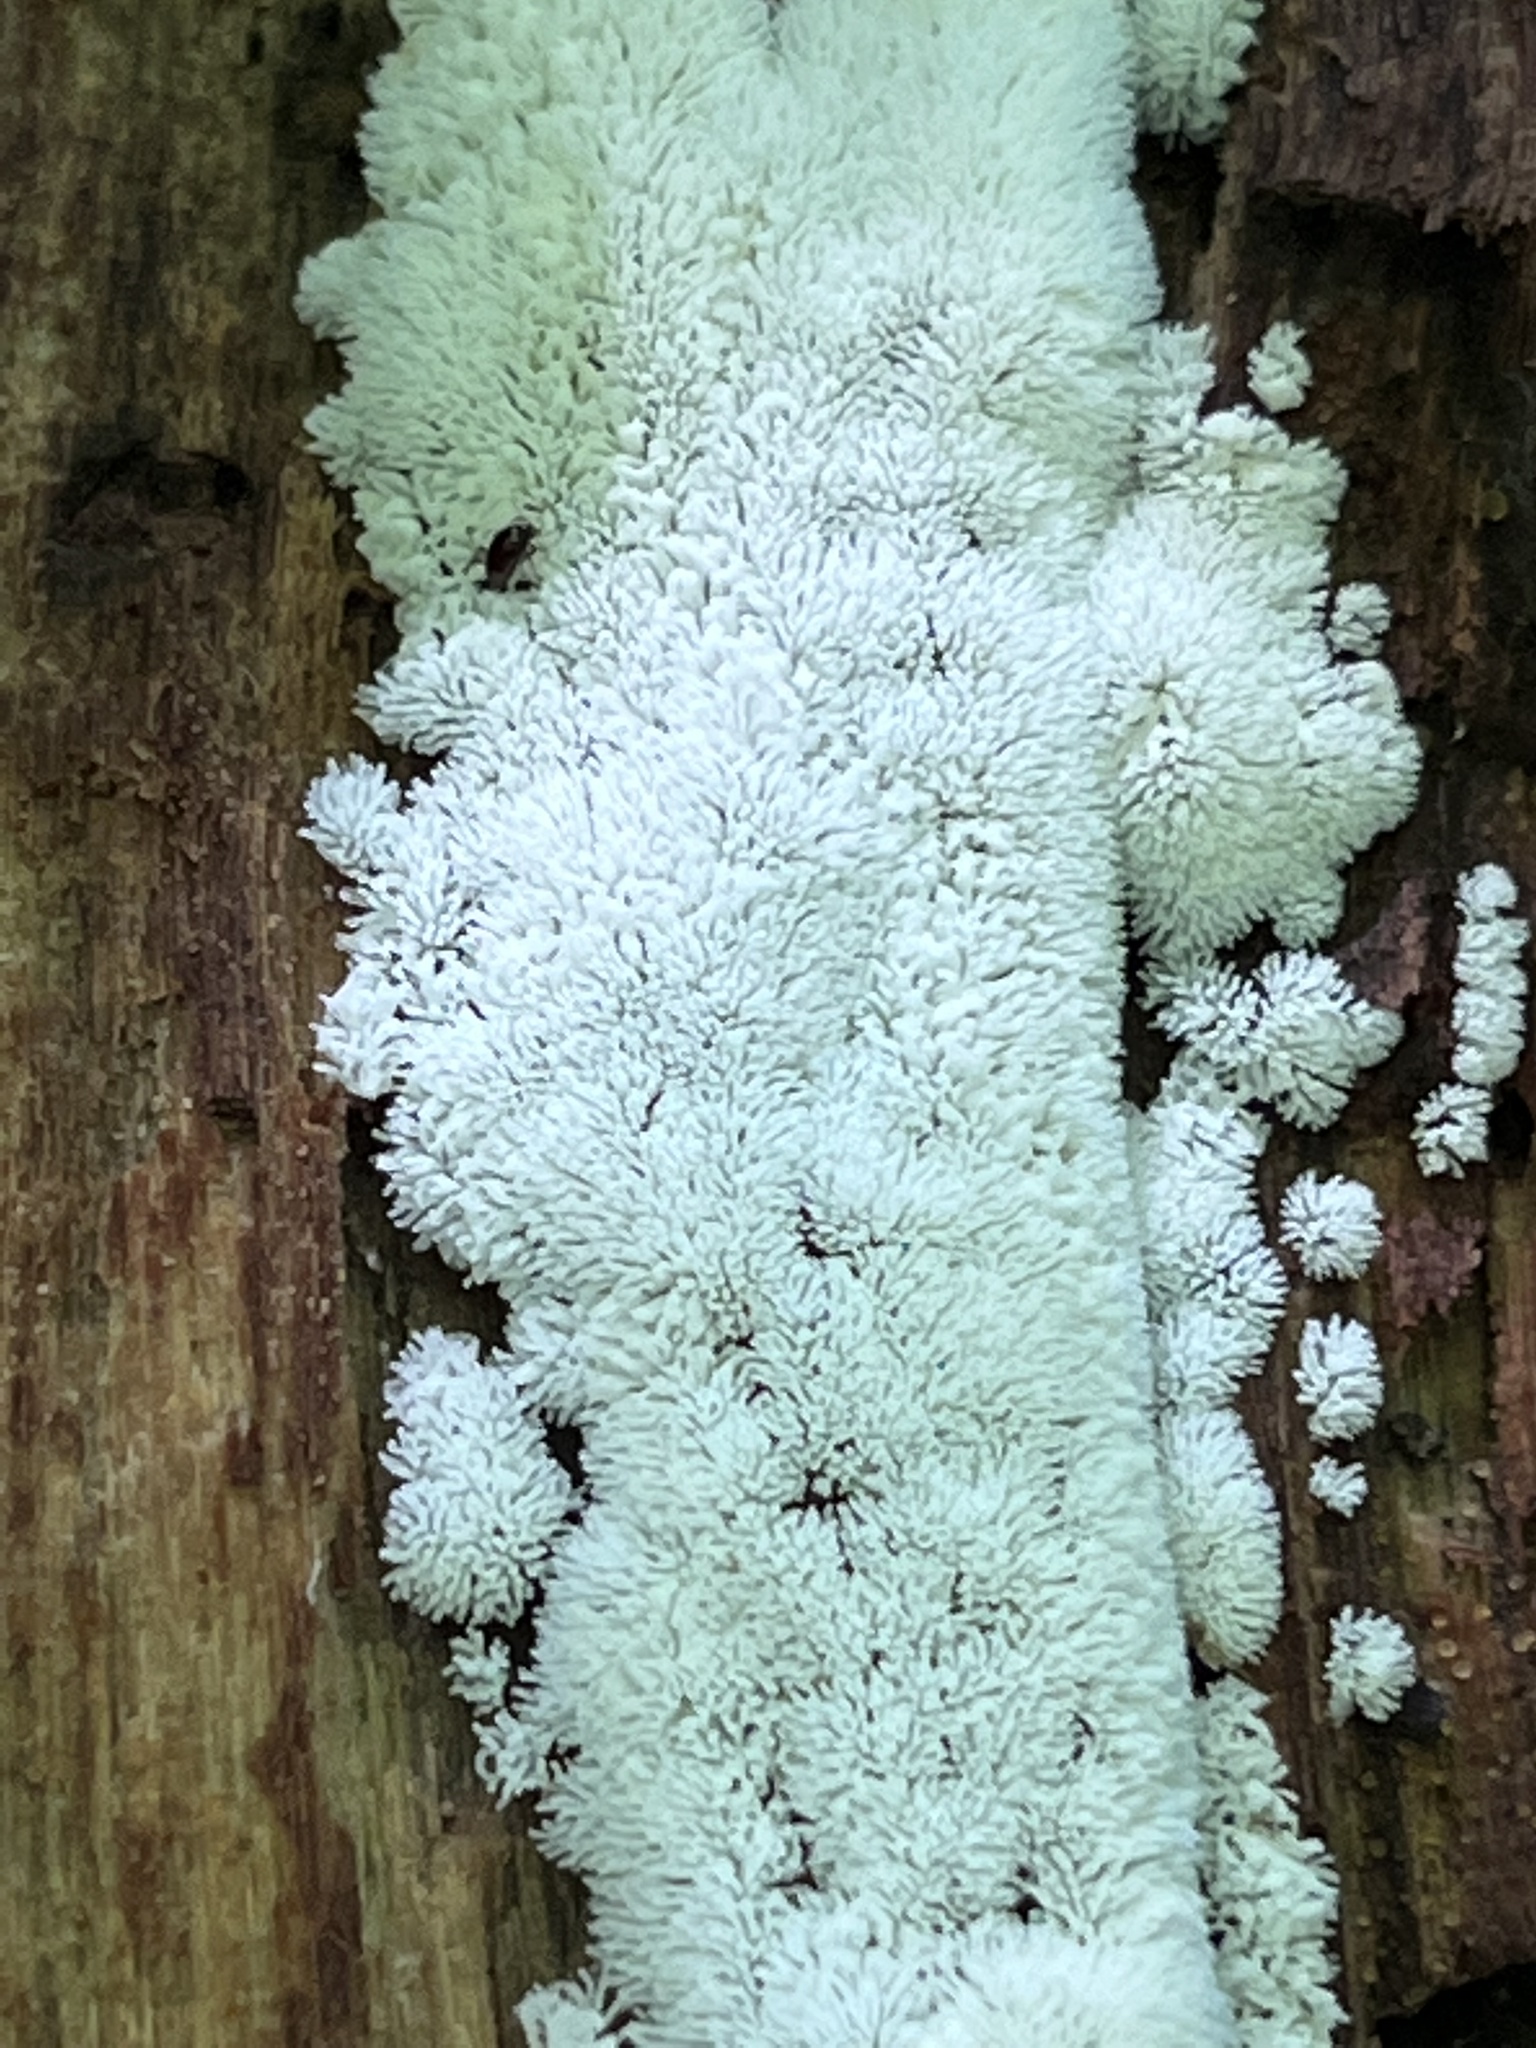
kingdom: Protozoa
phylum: Mycetozoa
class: Protosteliomycetes
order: Ceratiomyxales
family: Ceratiomyxaceae
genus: Ceratiomyxa
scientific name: Ceratiomyxa fruticulosa
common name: Honeycomb coral slime mold
